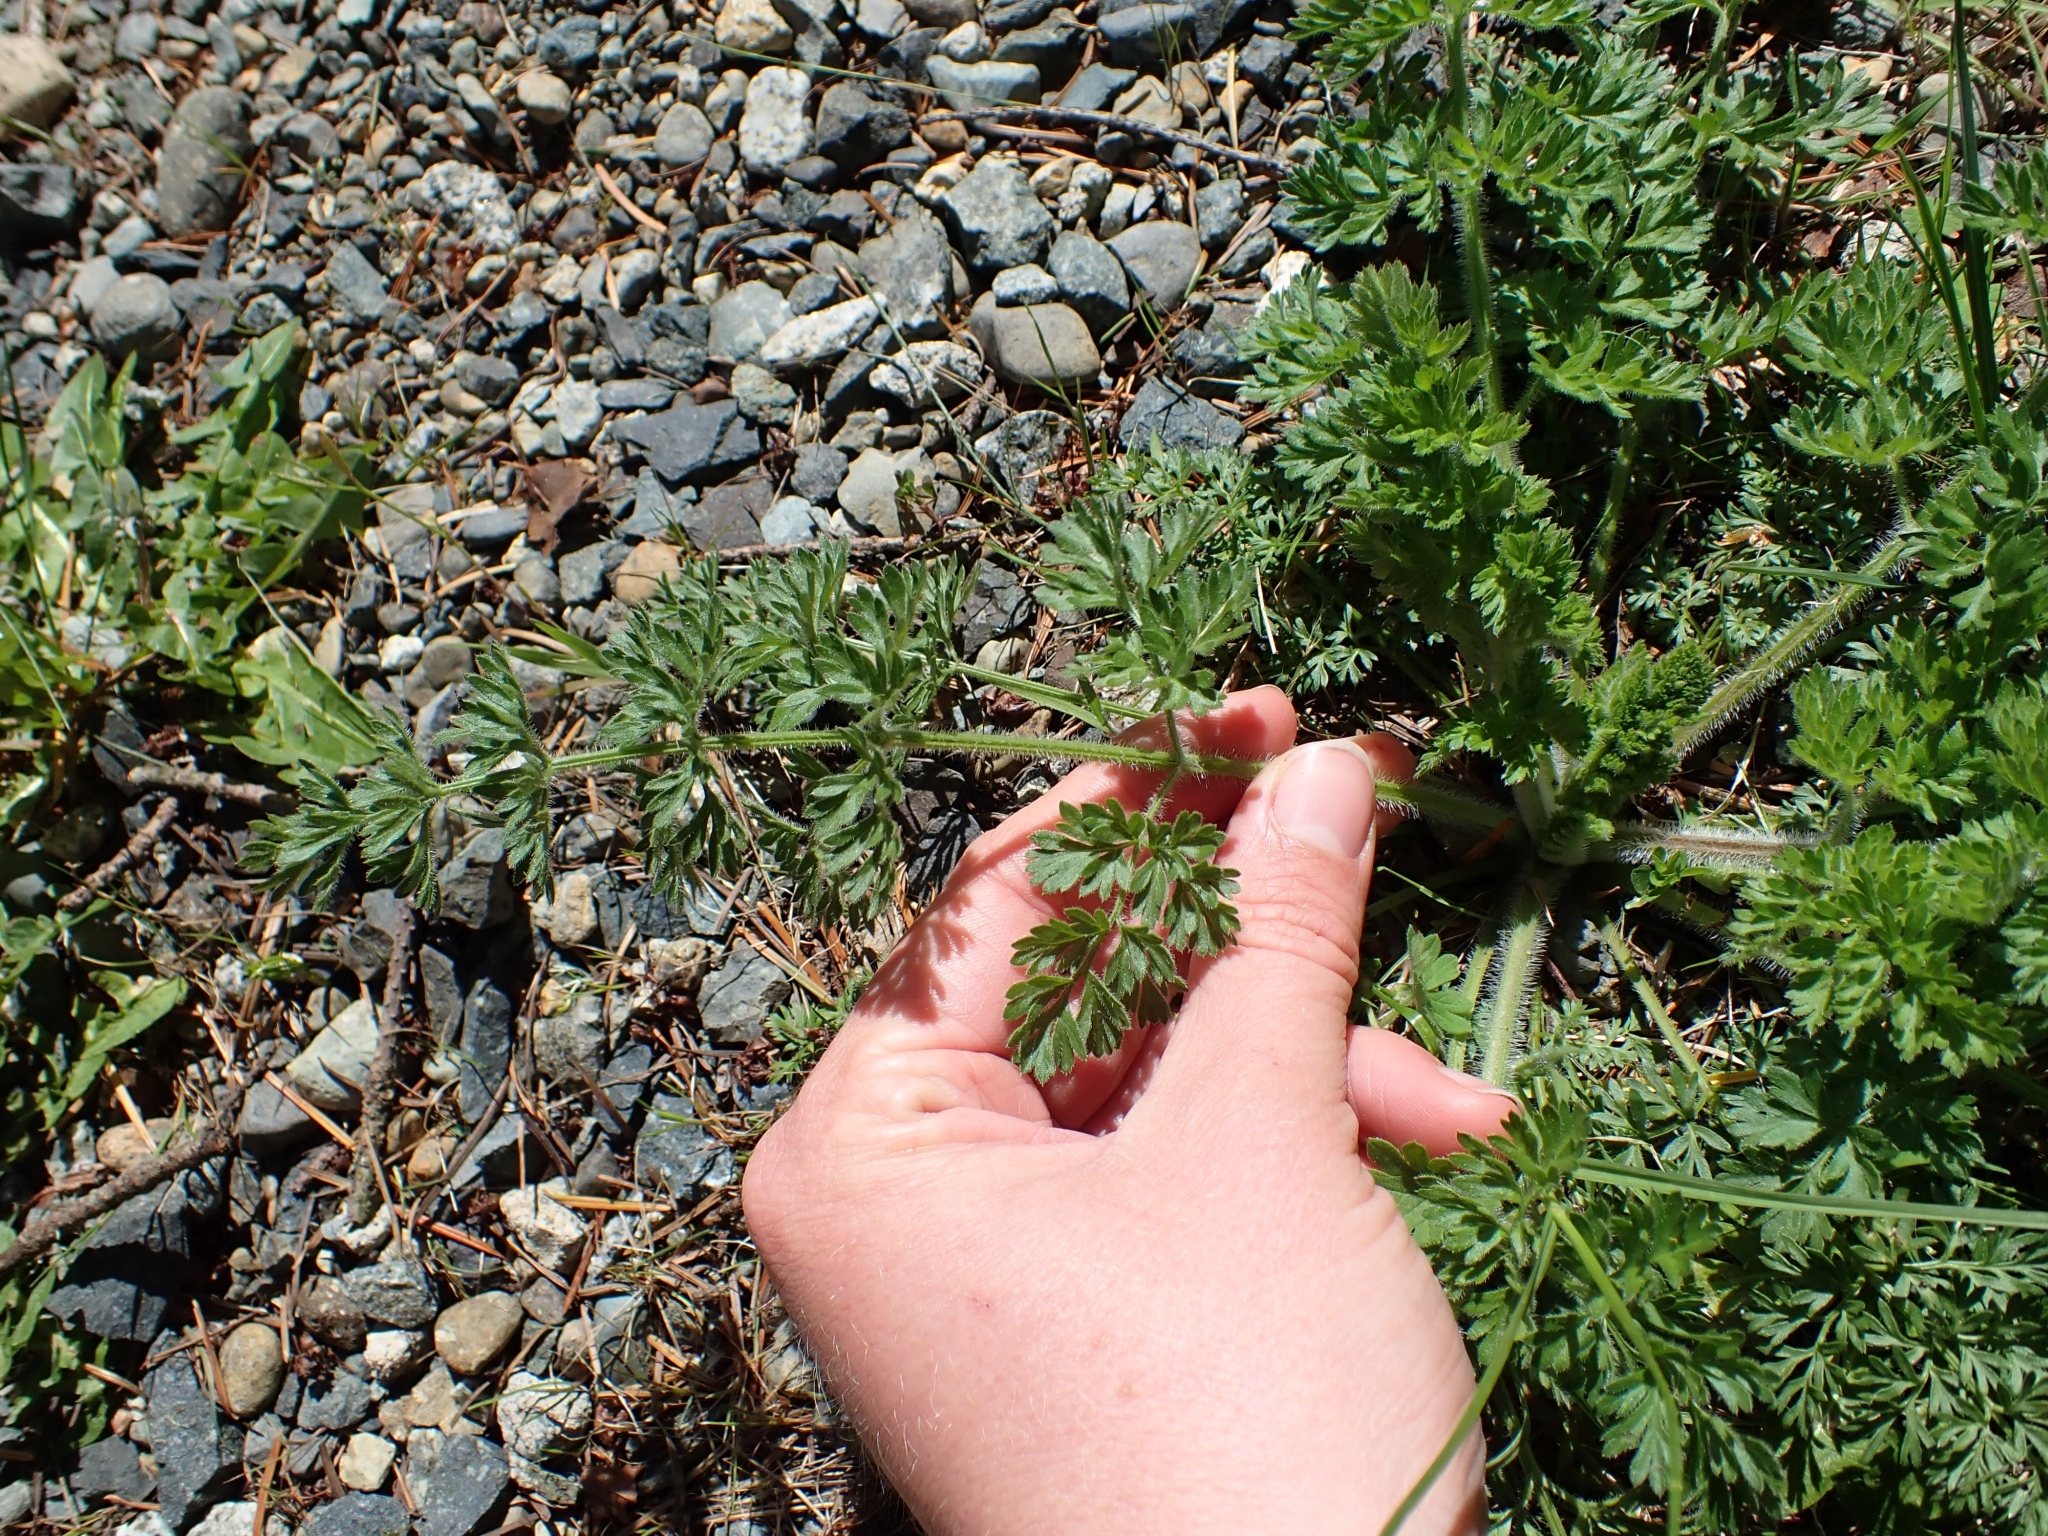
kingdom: Plantae
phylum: Tracheophyta
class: Magnoliopsida
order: Apiales
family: Apiaceae
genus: Daucus
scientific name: Daucus carota
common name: Wild carrot
